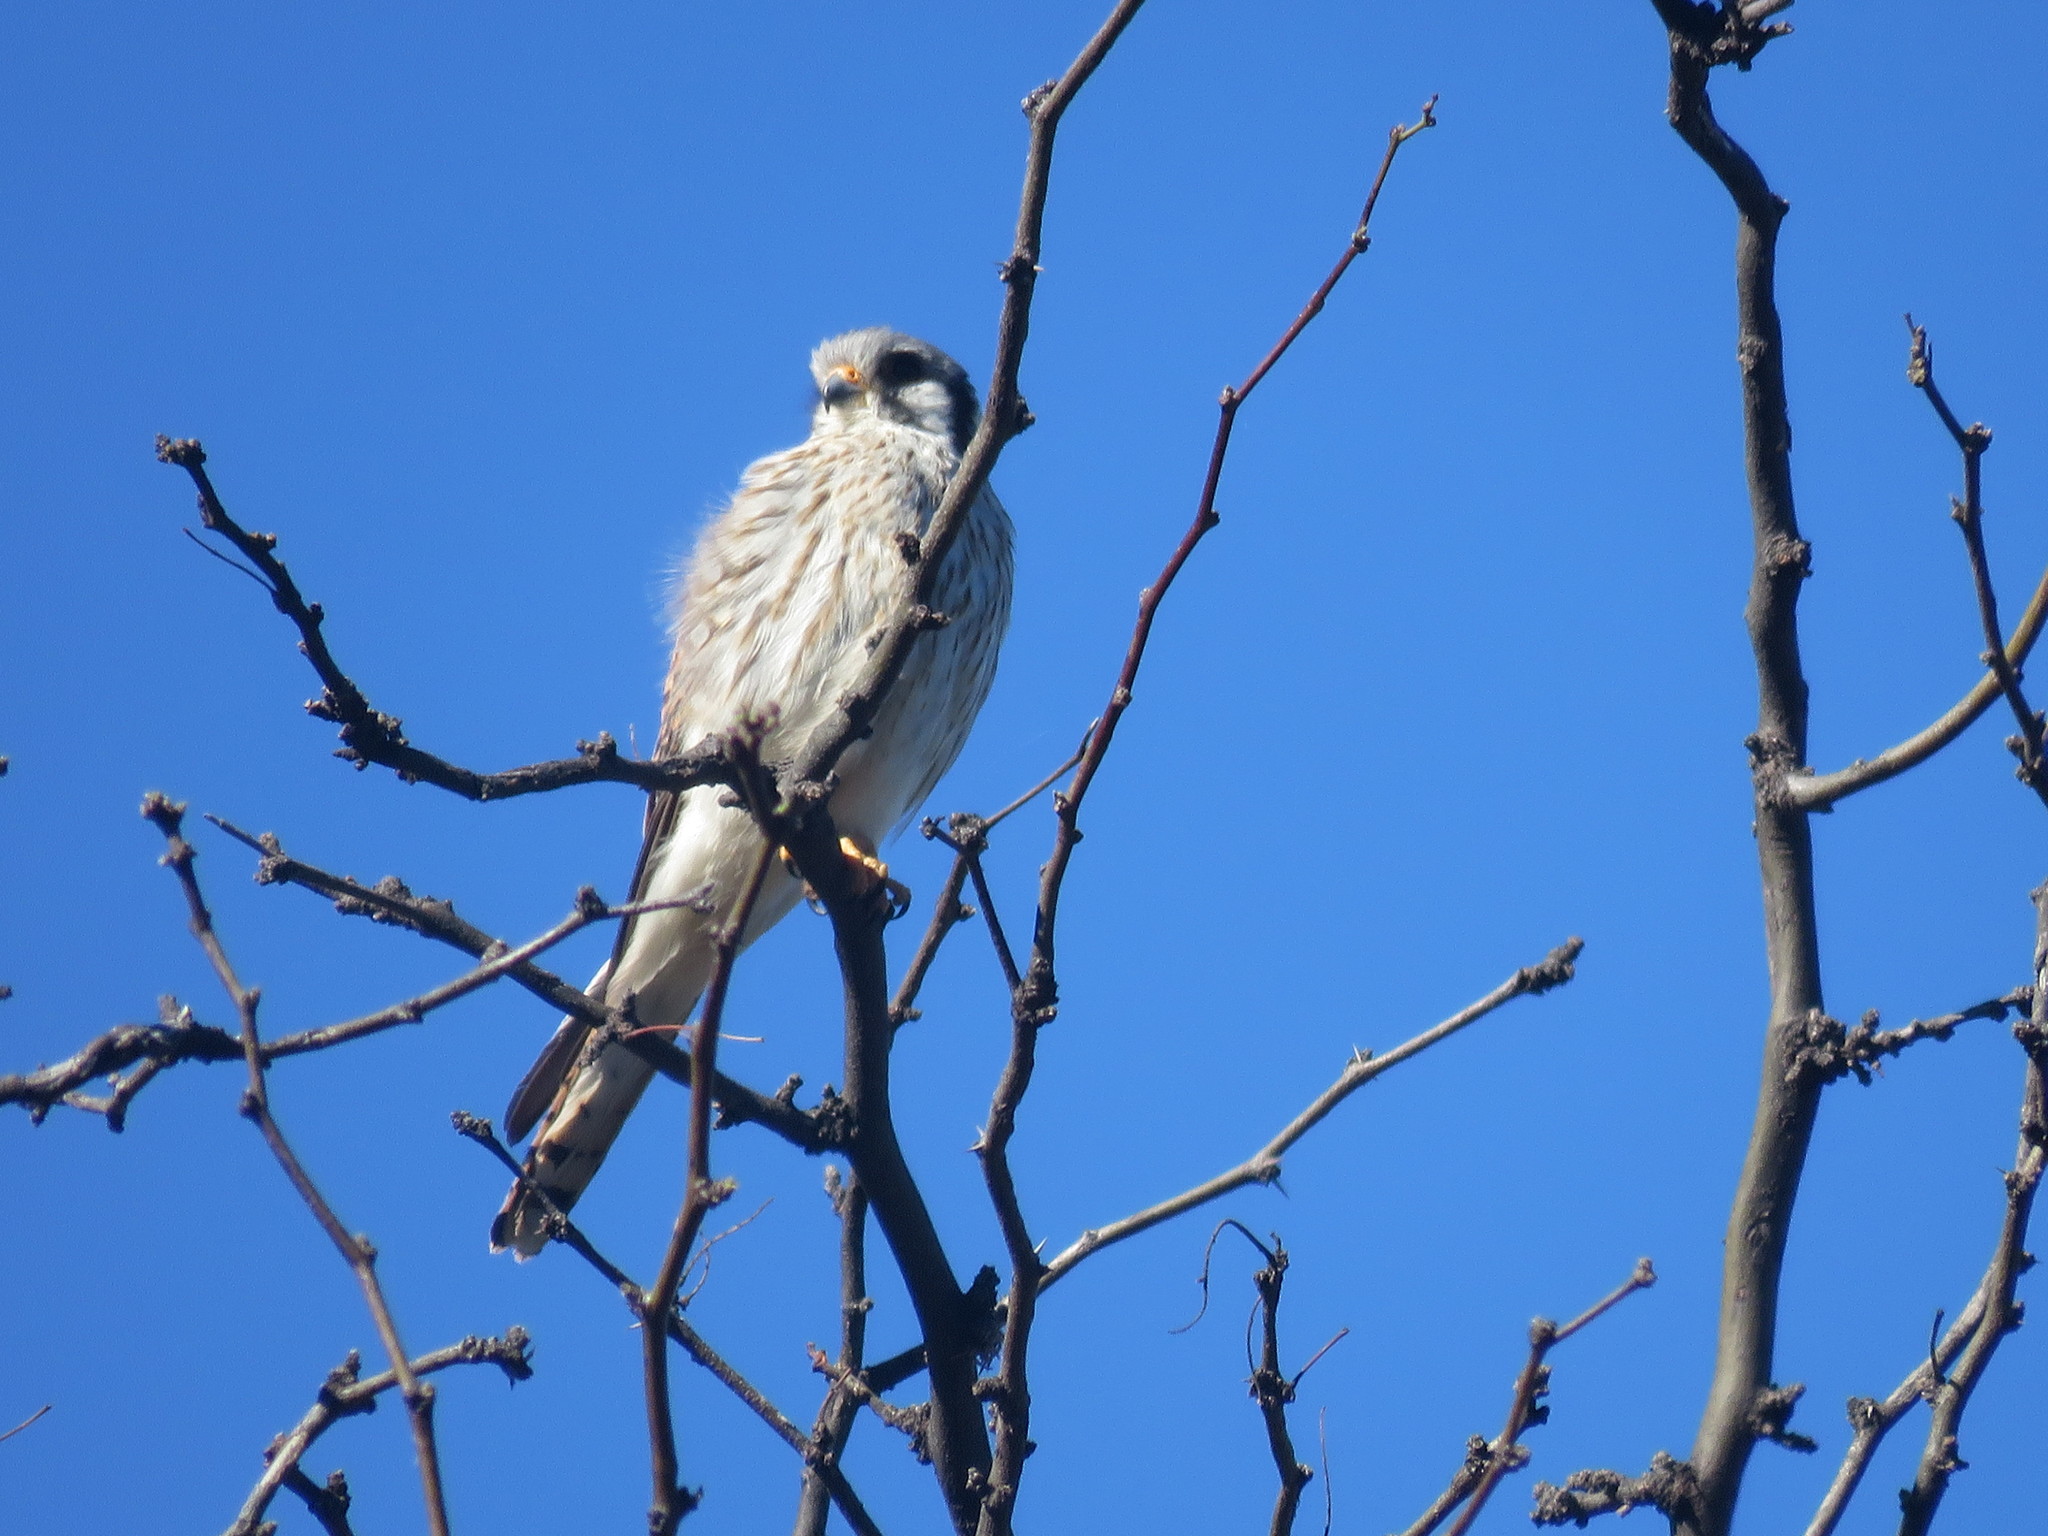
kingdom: Animalia
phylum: Chordata
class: Aves
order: Falconiformes
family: Falconidae
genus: Falco
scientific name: Falco sparverius
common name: American kestrel
